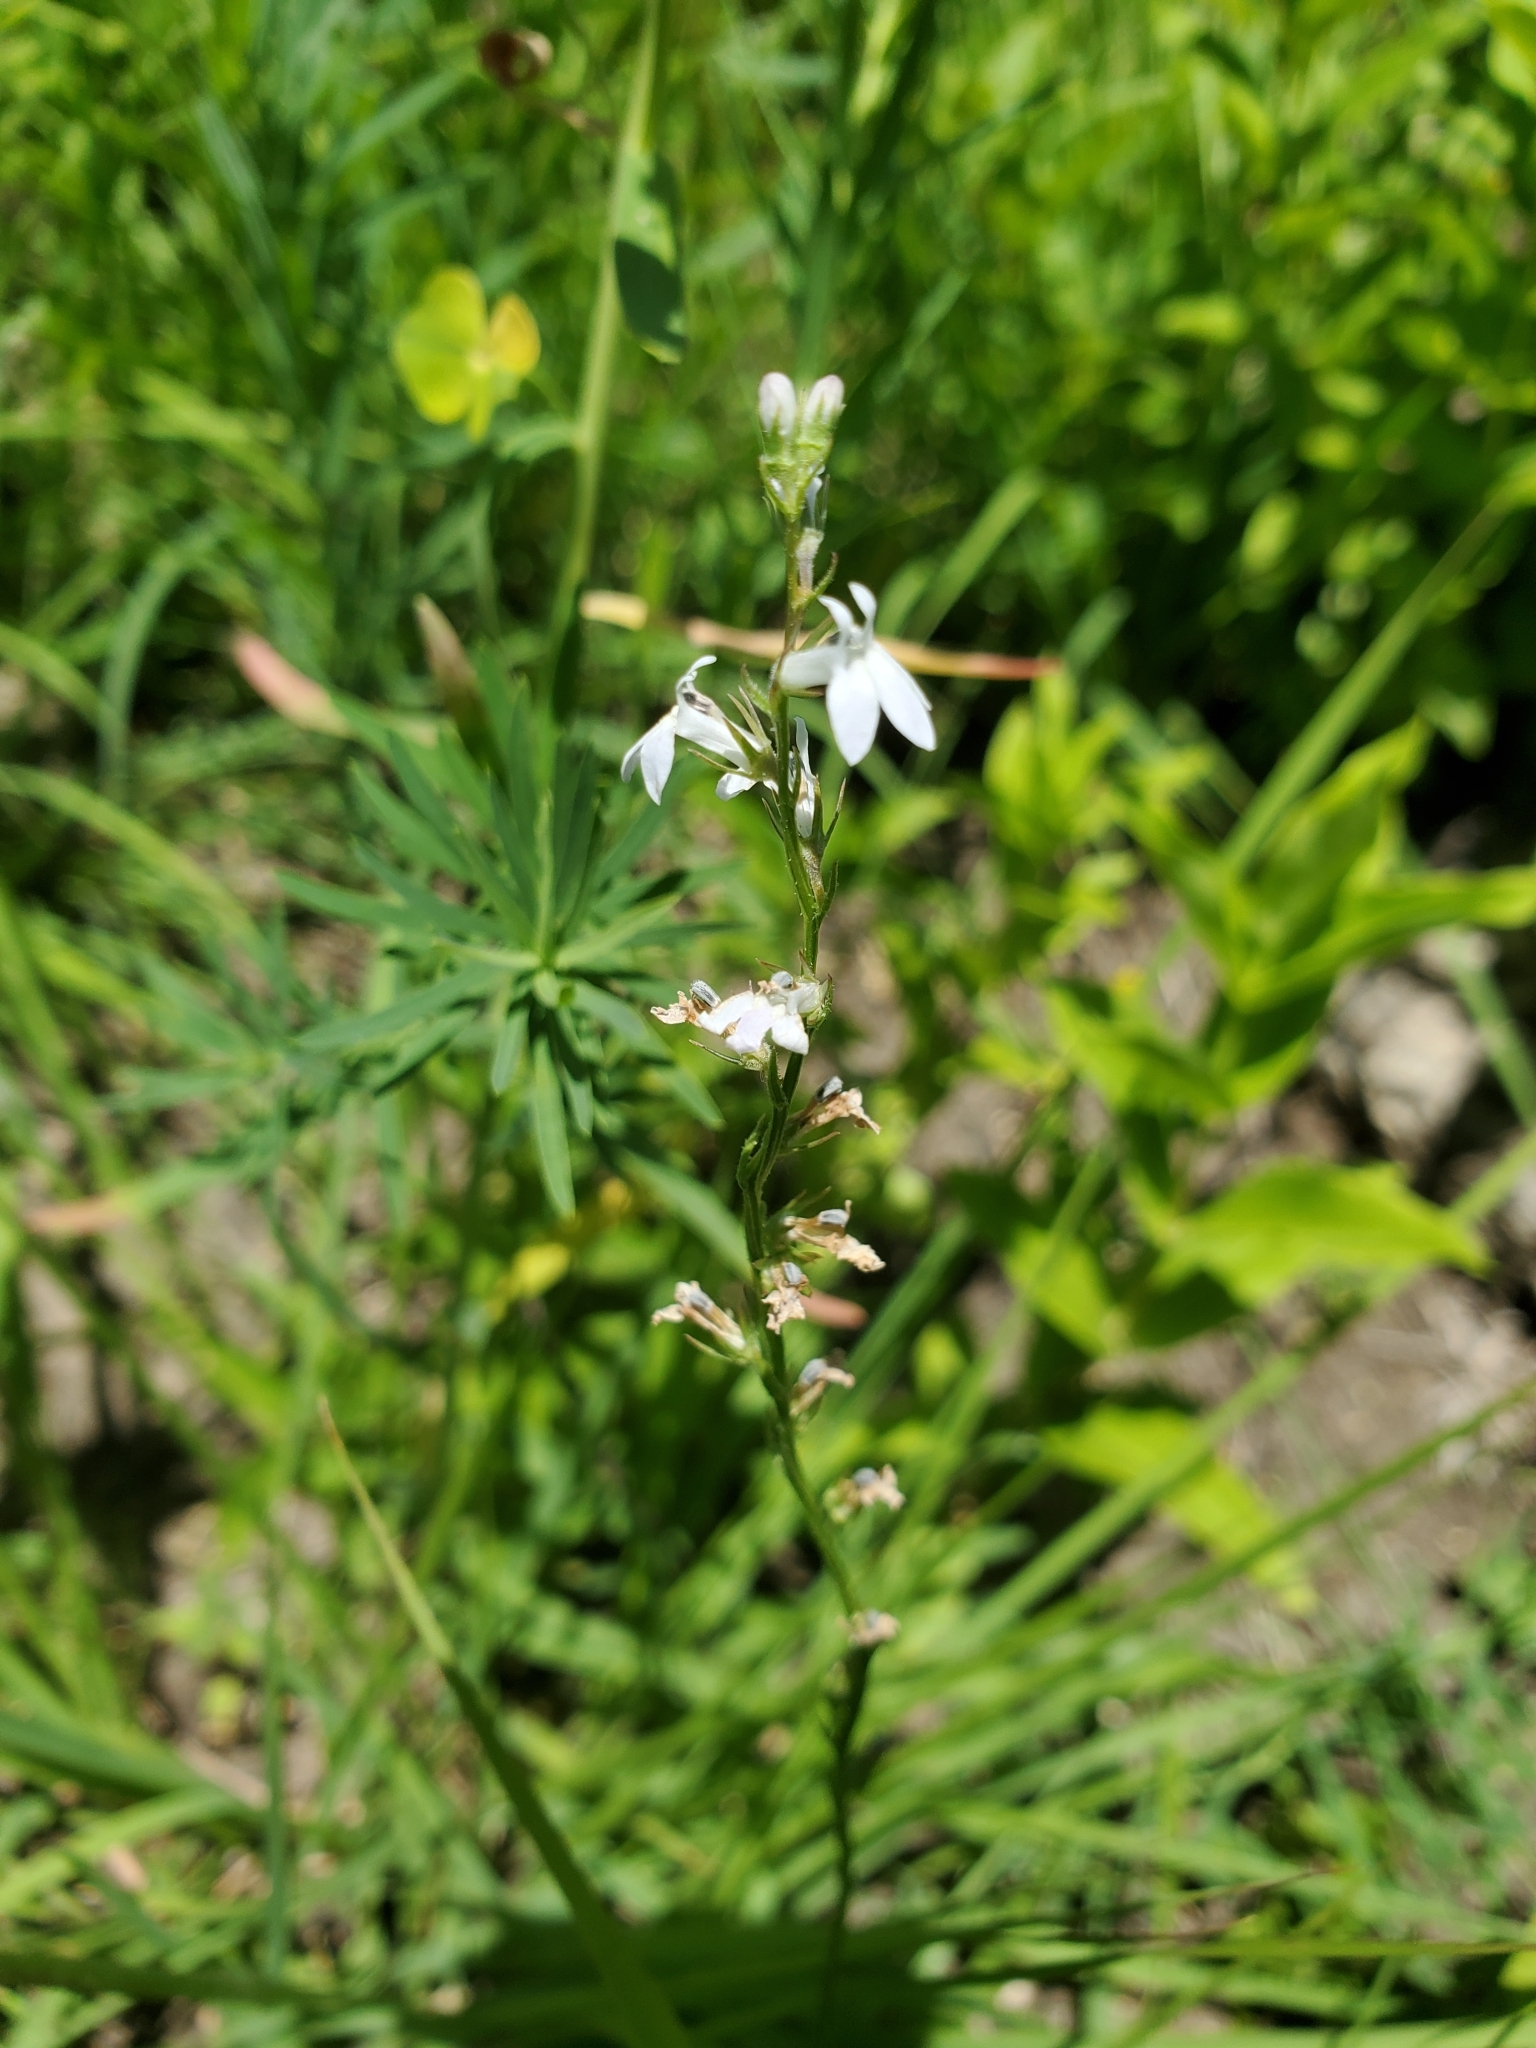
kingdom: Plantae
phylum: Tracheophyta
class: Magnoliopsida
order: Asterales
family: Campanulaceae
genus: Lobelia
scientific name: Lobelia spicata
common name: Pale-spike lobelia
